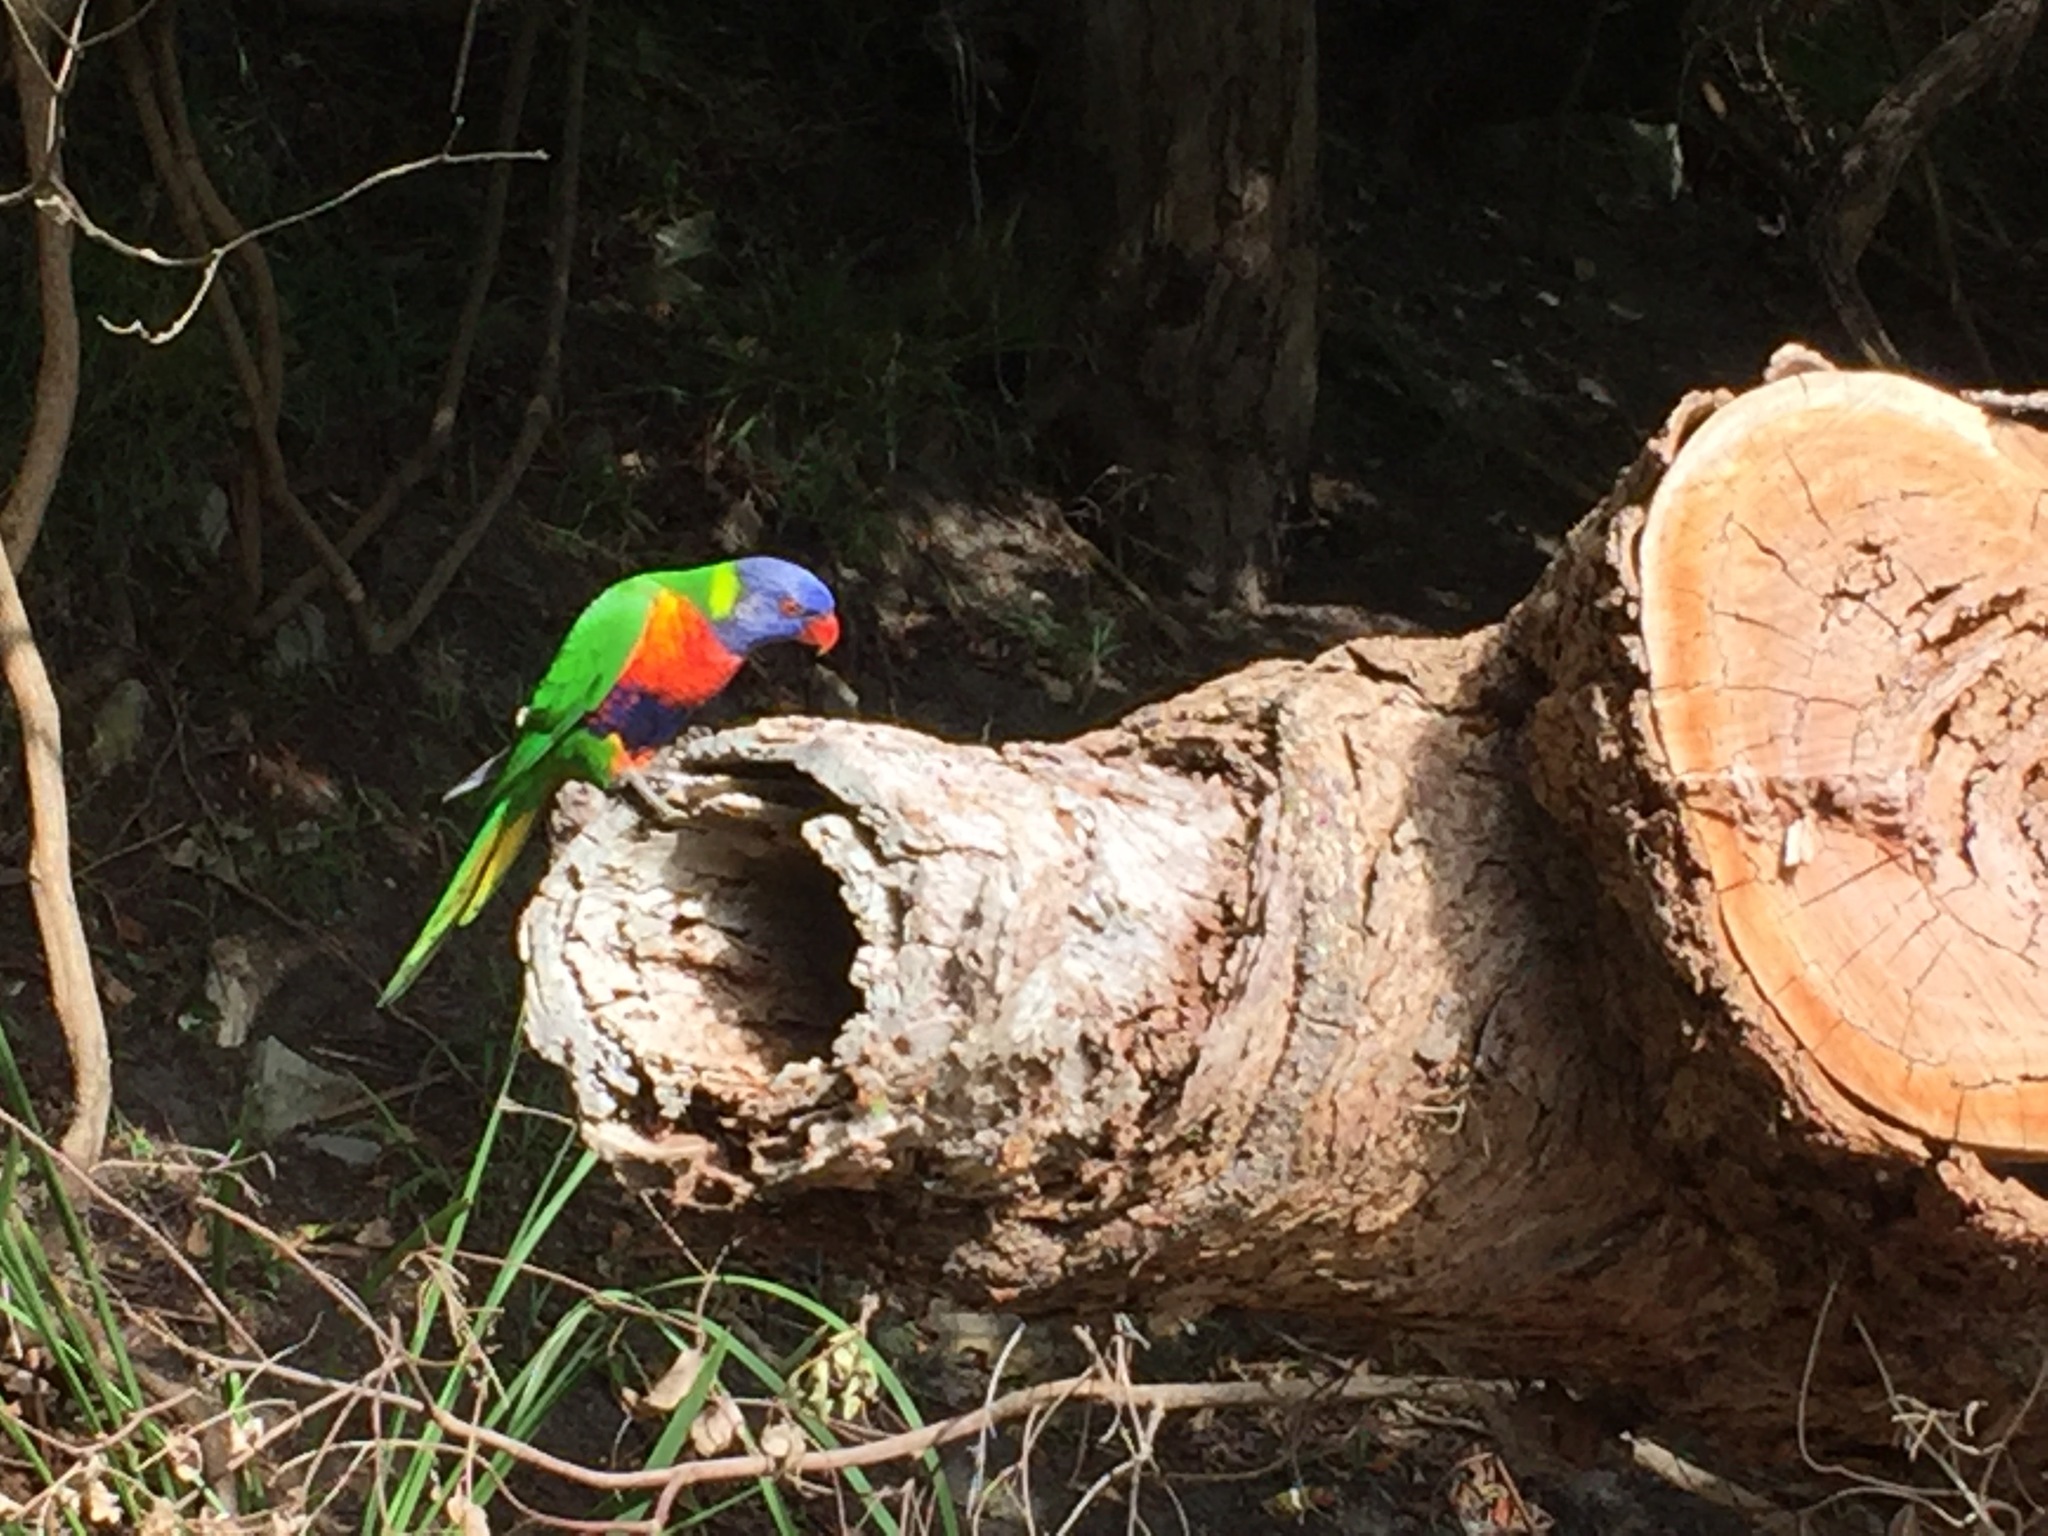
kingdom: Animalia
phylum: Chordata
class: Aves
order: Psittaciformes
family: Psittacidae
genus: Trichoglossus
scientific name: Trichoglossus haematodus
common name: Coconut lorikeet
